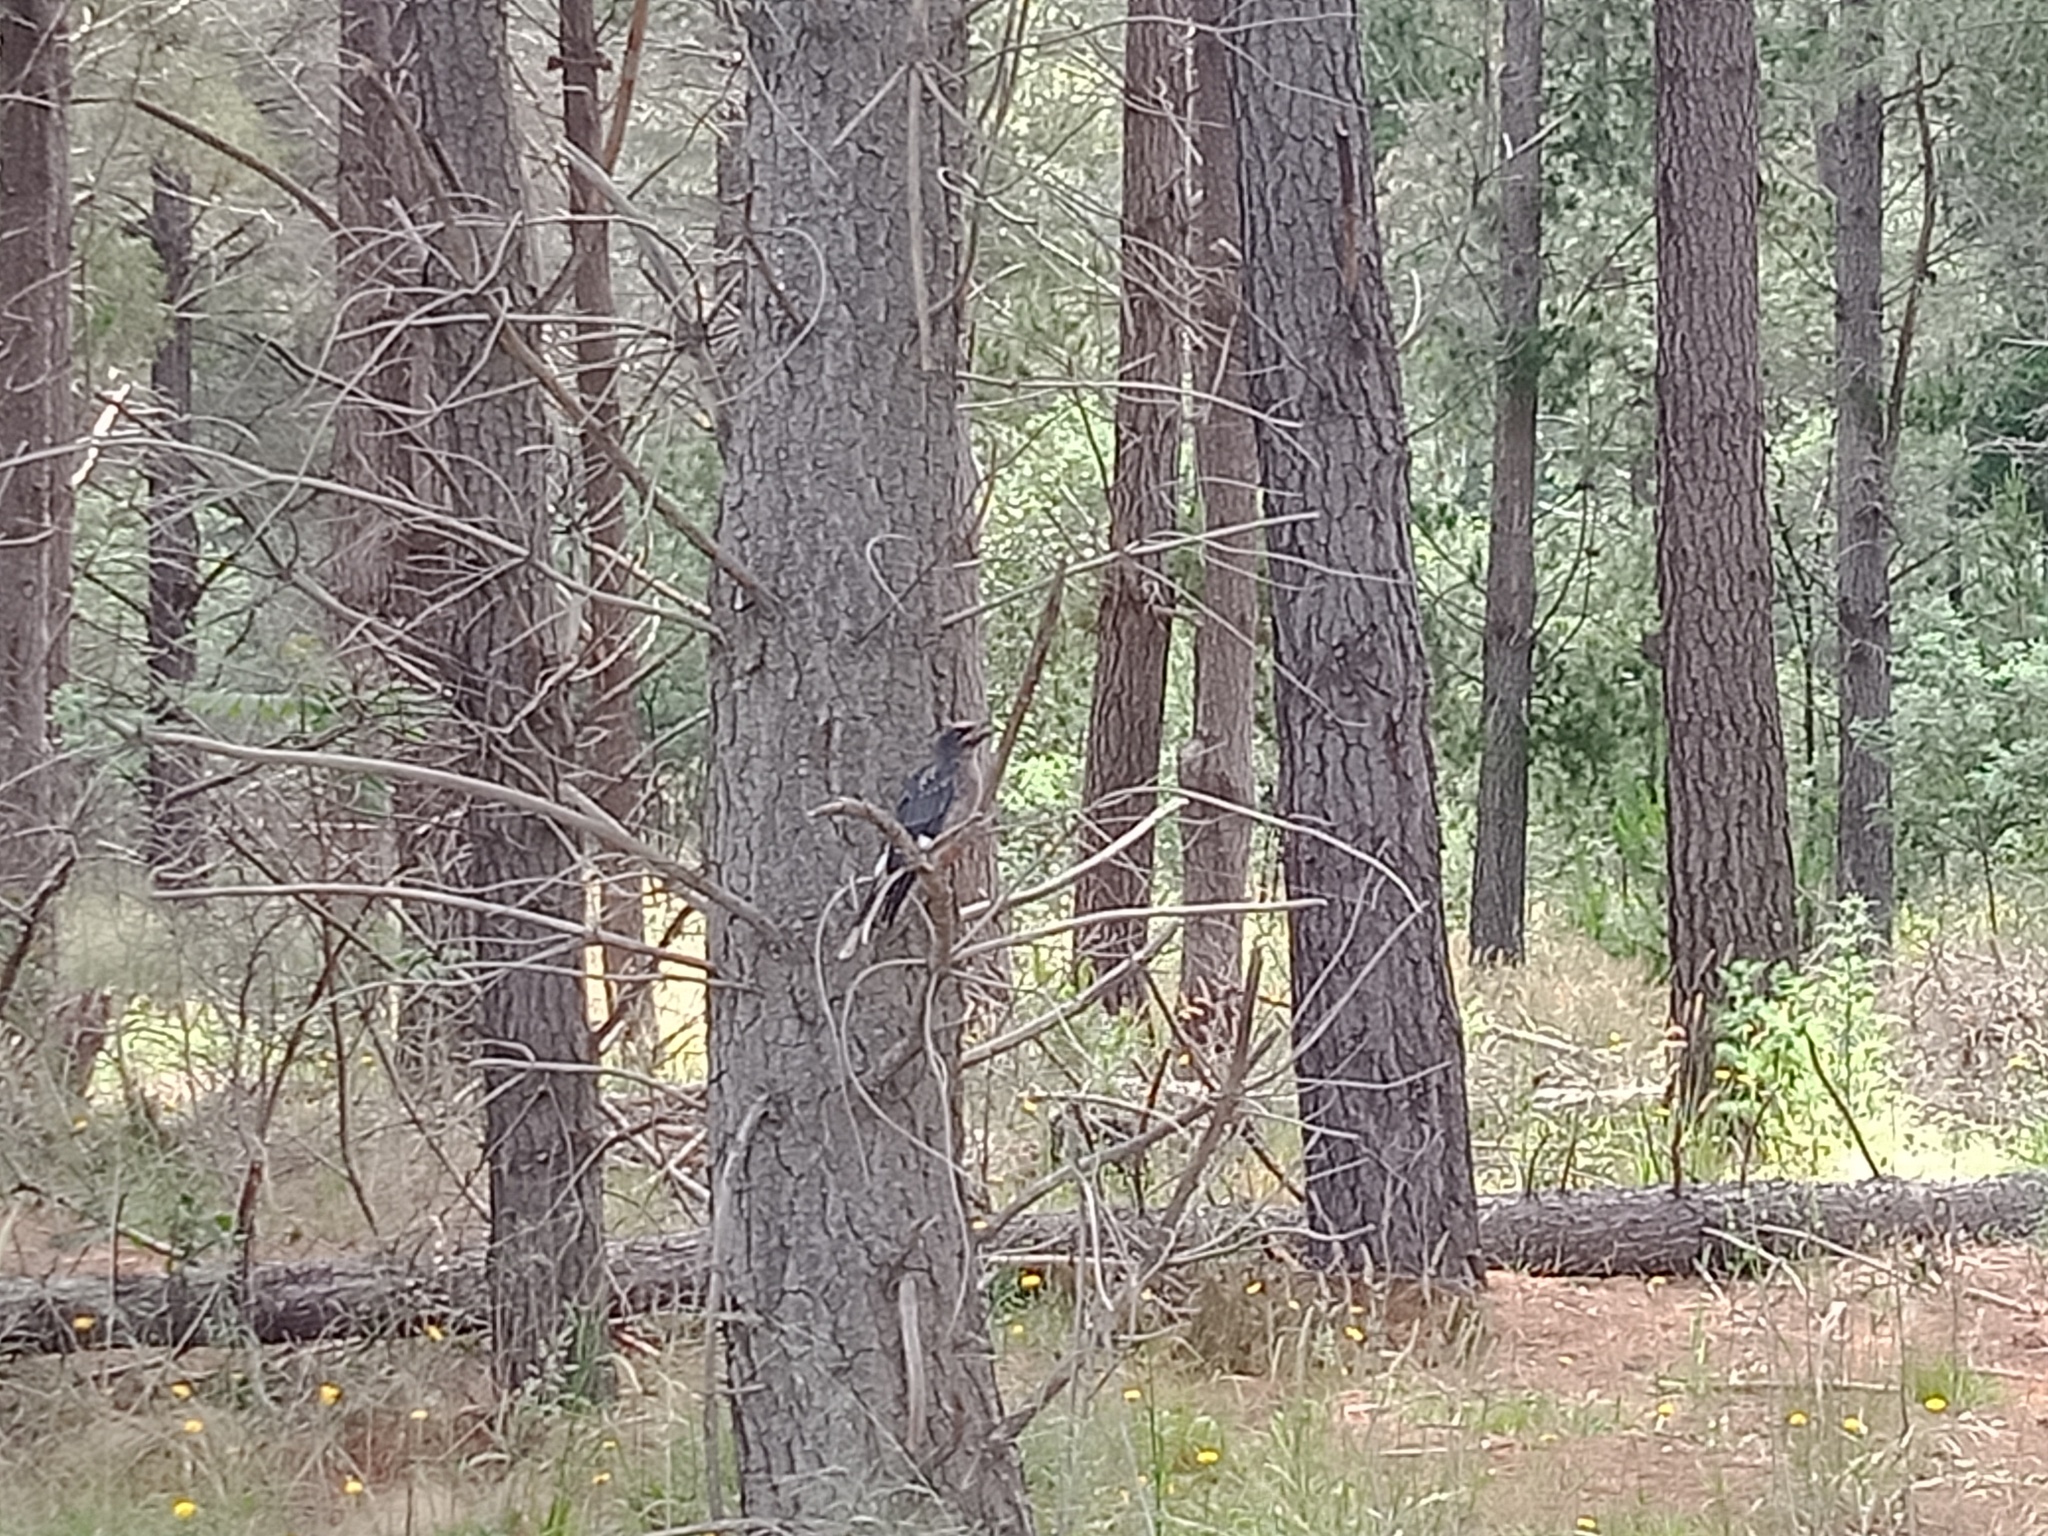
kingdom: Animalia
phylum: Chordata
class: Aves
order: Passeriformes
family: Cracticidae
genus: Strepera
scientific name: Strepera graculina
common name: Pied currawong
